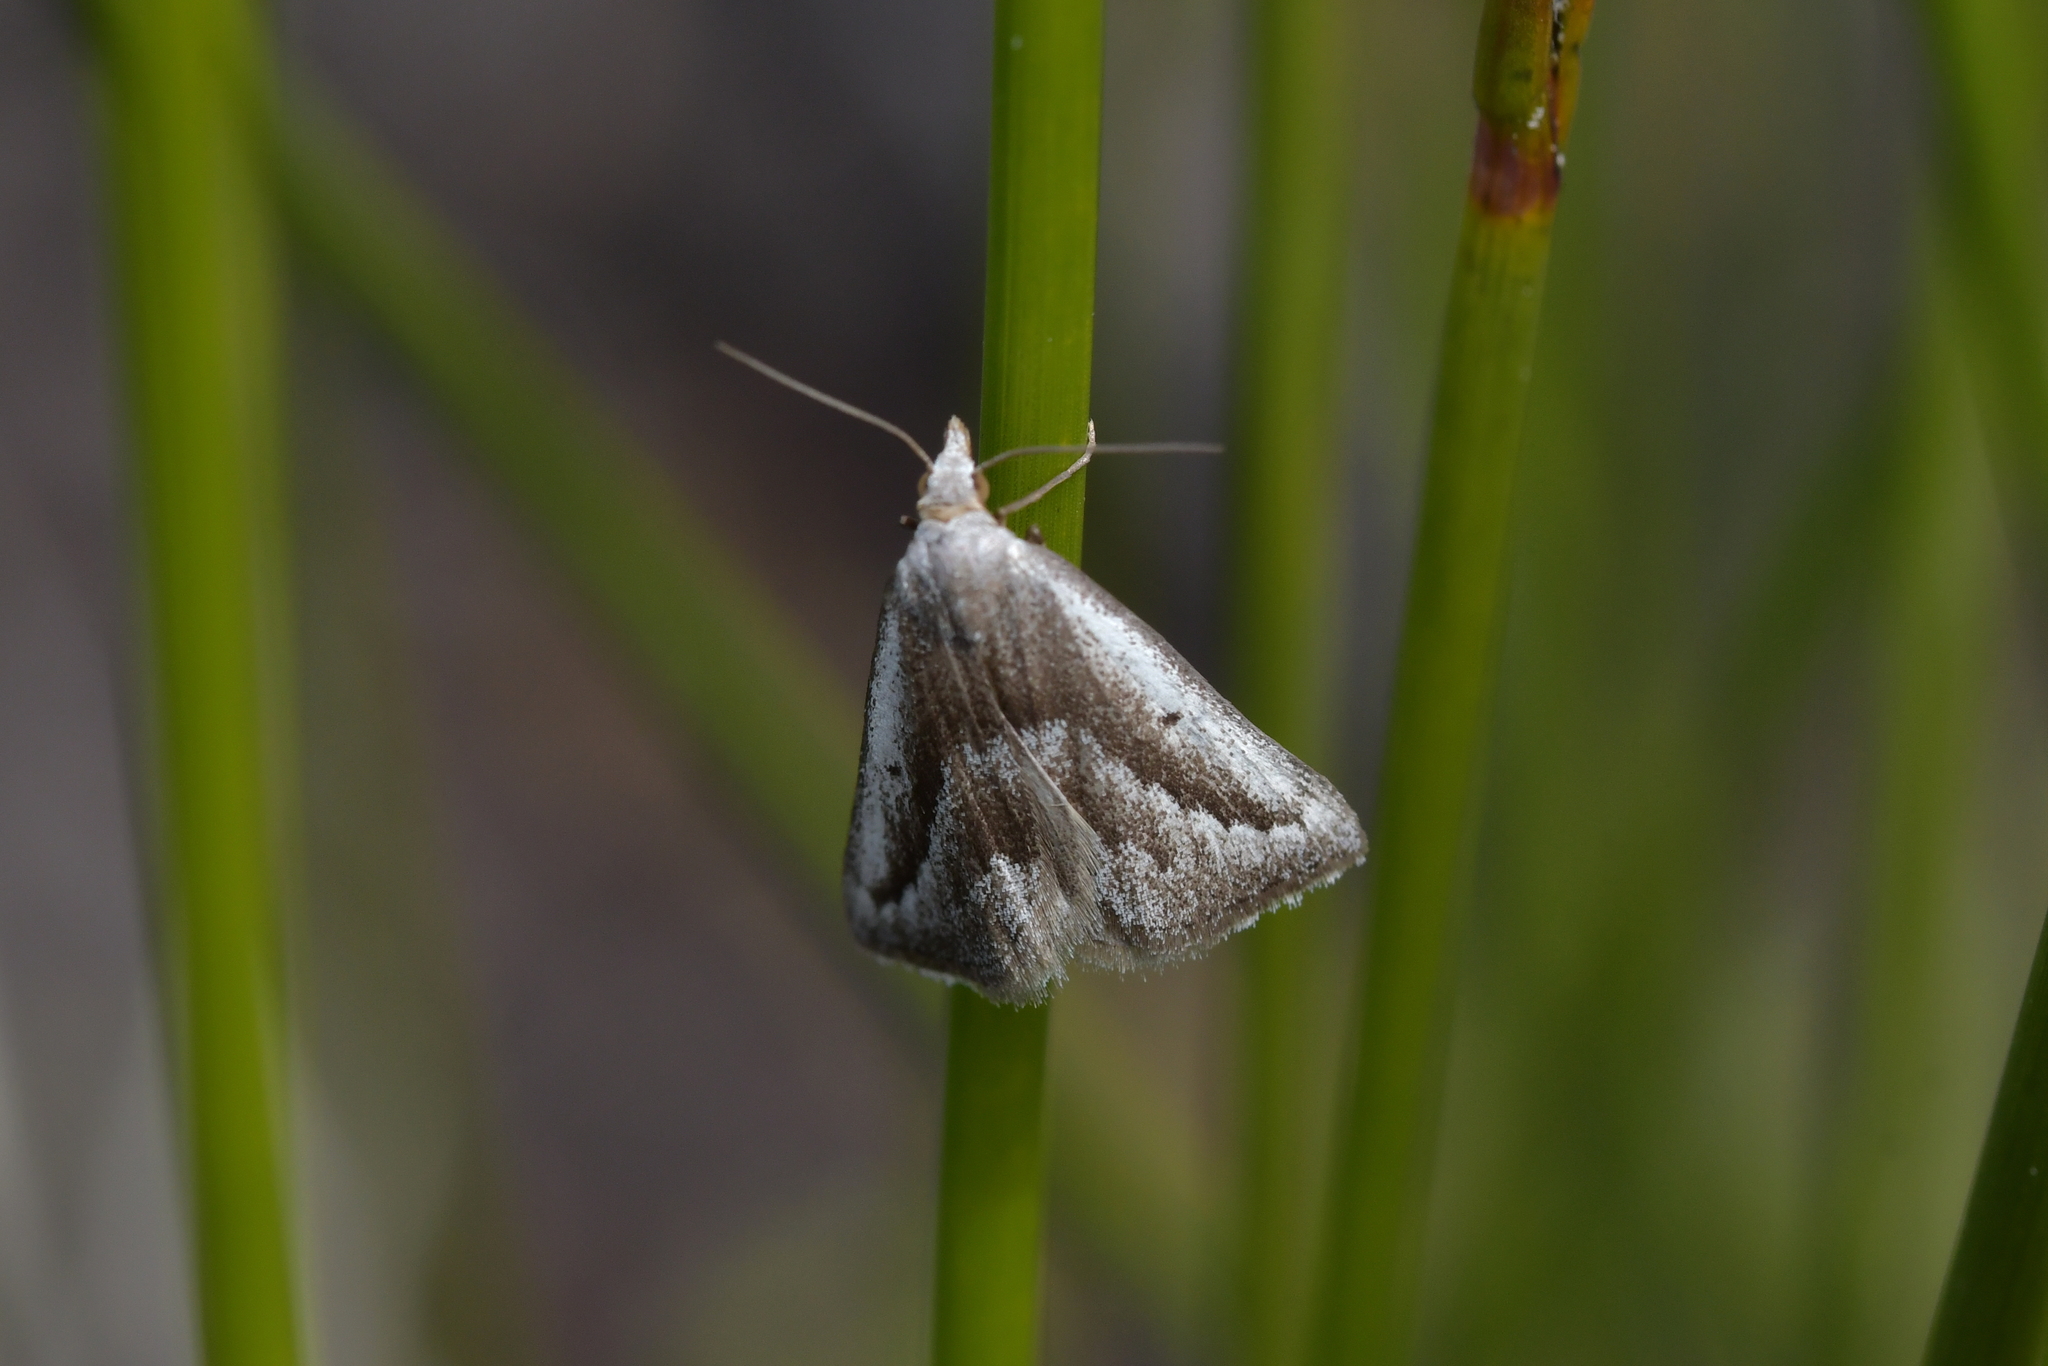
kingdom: Animalia
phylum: Arthropoda
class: Insecta
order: Lepidoptera
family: Geometridae
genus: Adeixis
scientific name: Adeixis griseata
